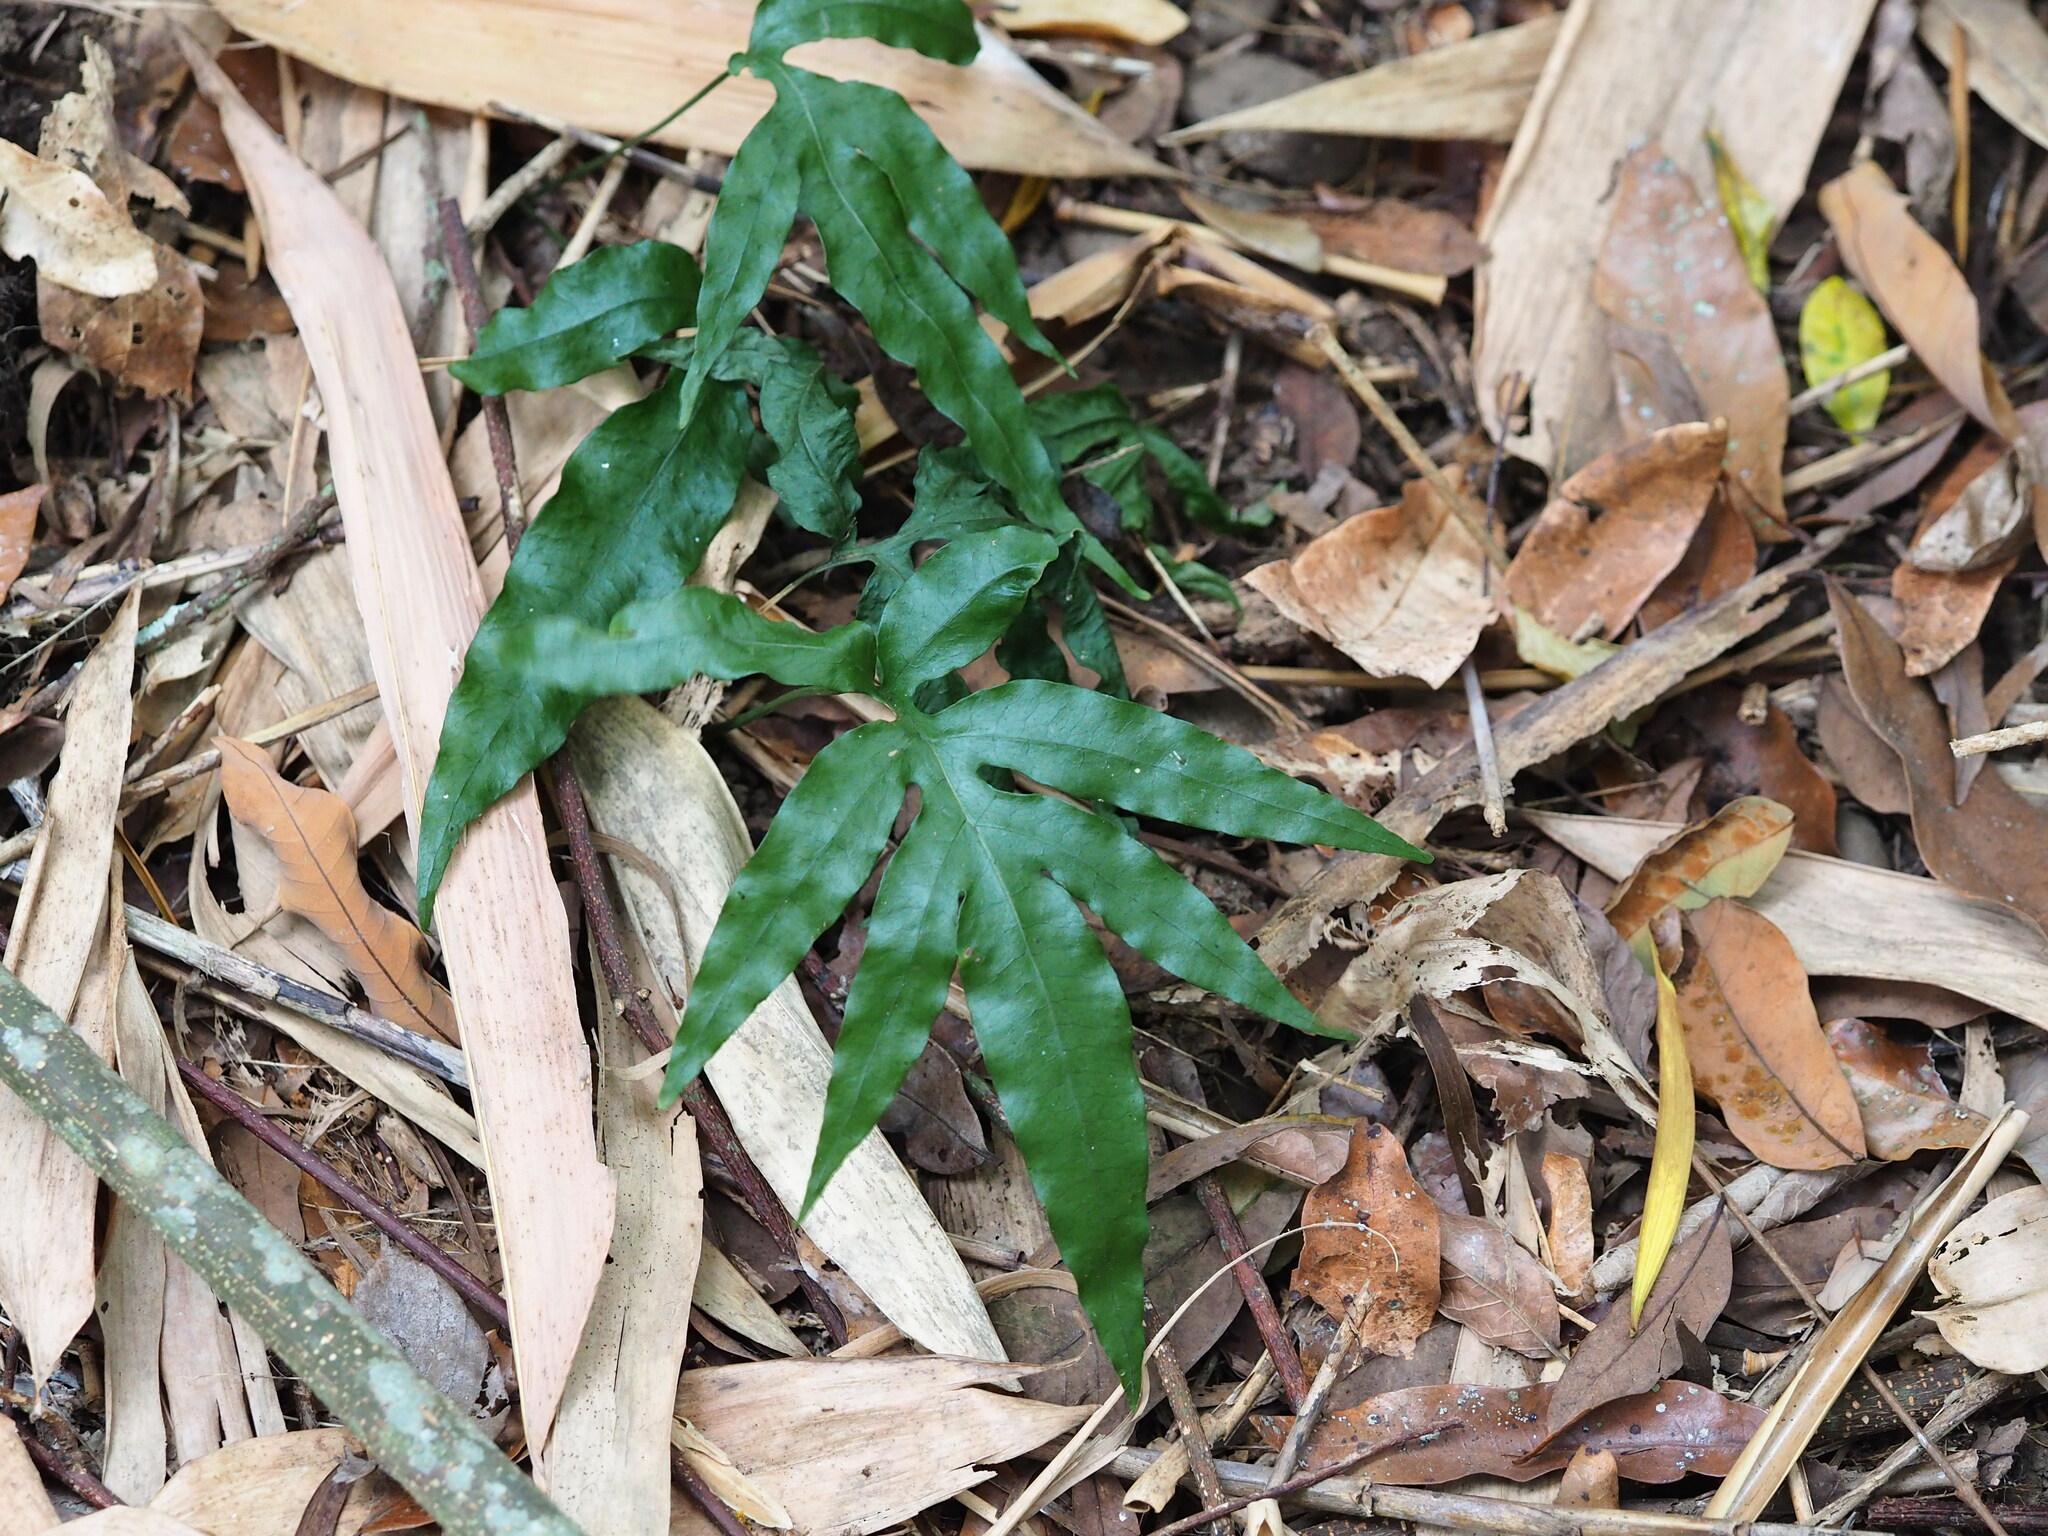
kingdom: Plantae
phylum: Tracheophyta
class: Polypodiopsida
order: Polypodiales
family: Polypodiaceae
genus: Leptochilus
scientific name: Leptochilus ellipticus
